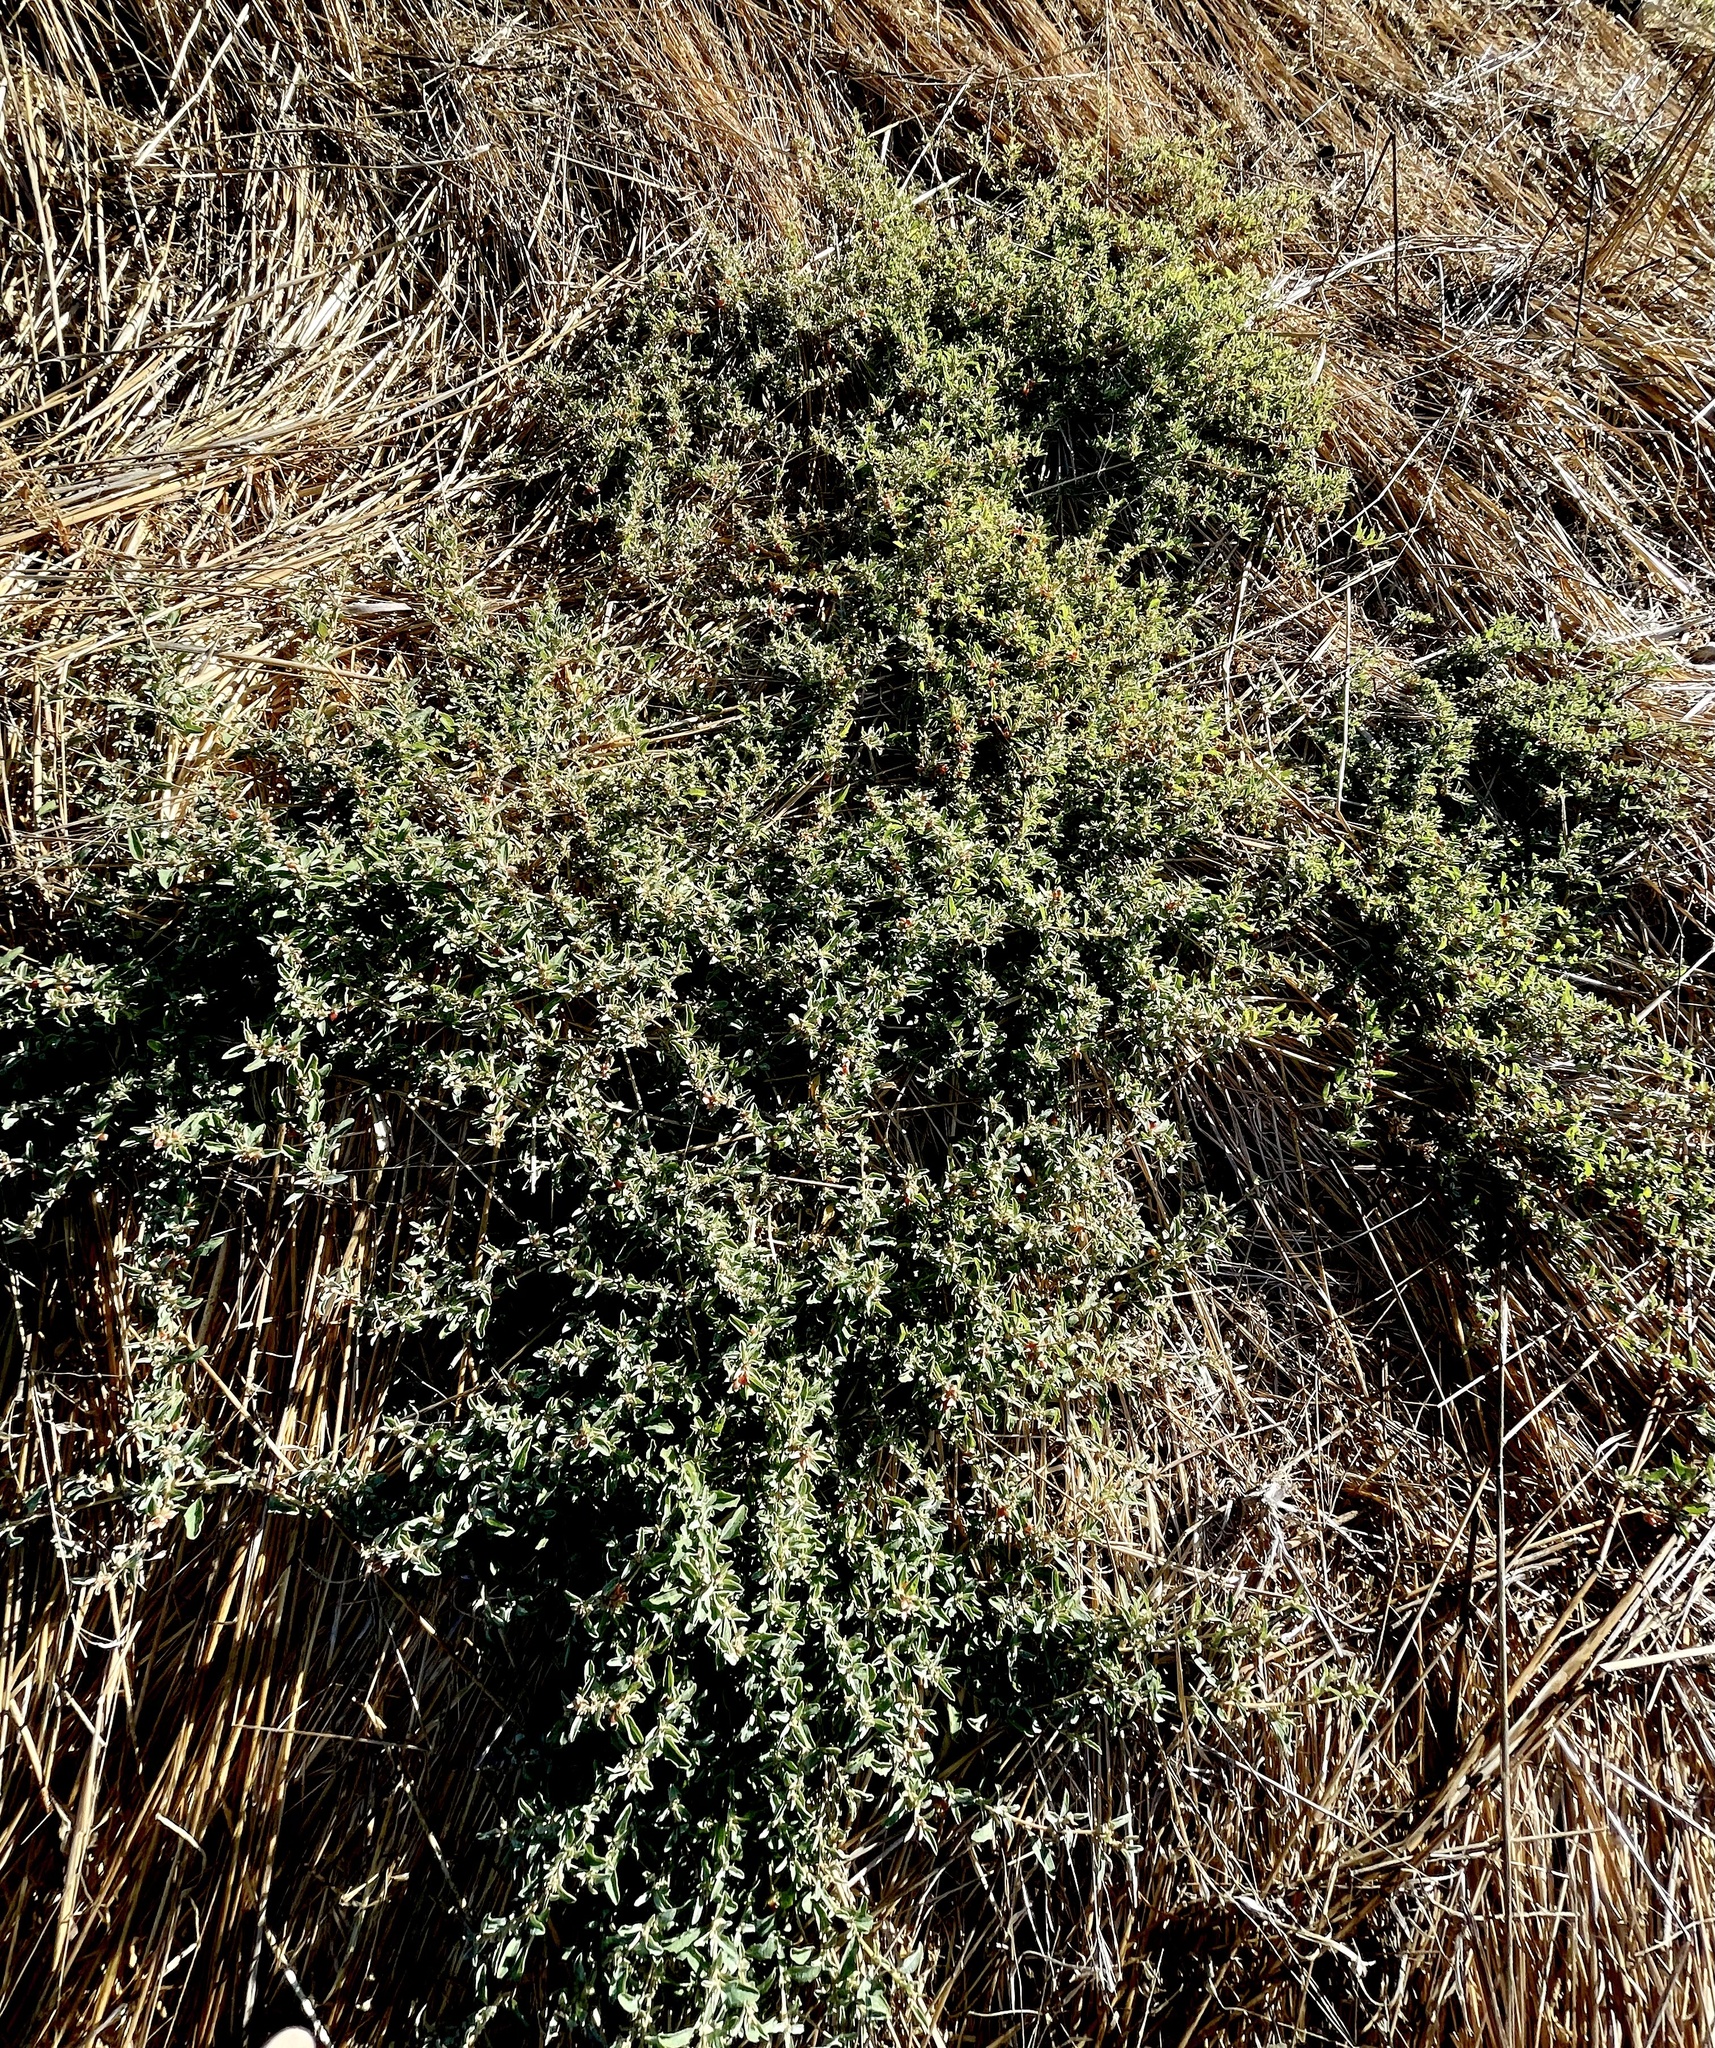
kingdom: Plantae
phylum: Tracheophyta
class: Magnoliopsida
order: Caryophyllales
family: Amaranthaceae
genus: Atriplex
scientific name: Atriplex semibaccata
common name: Australian saltbush
